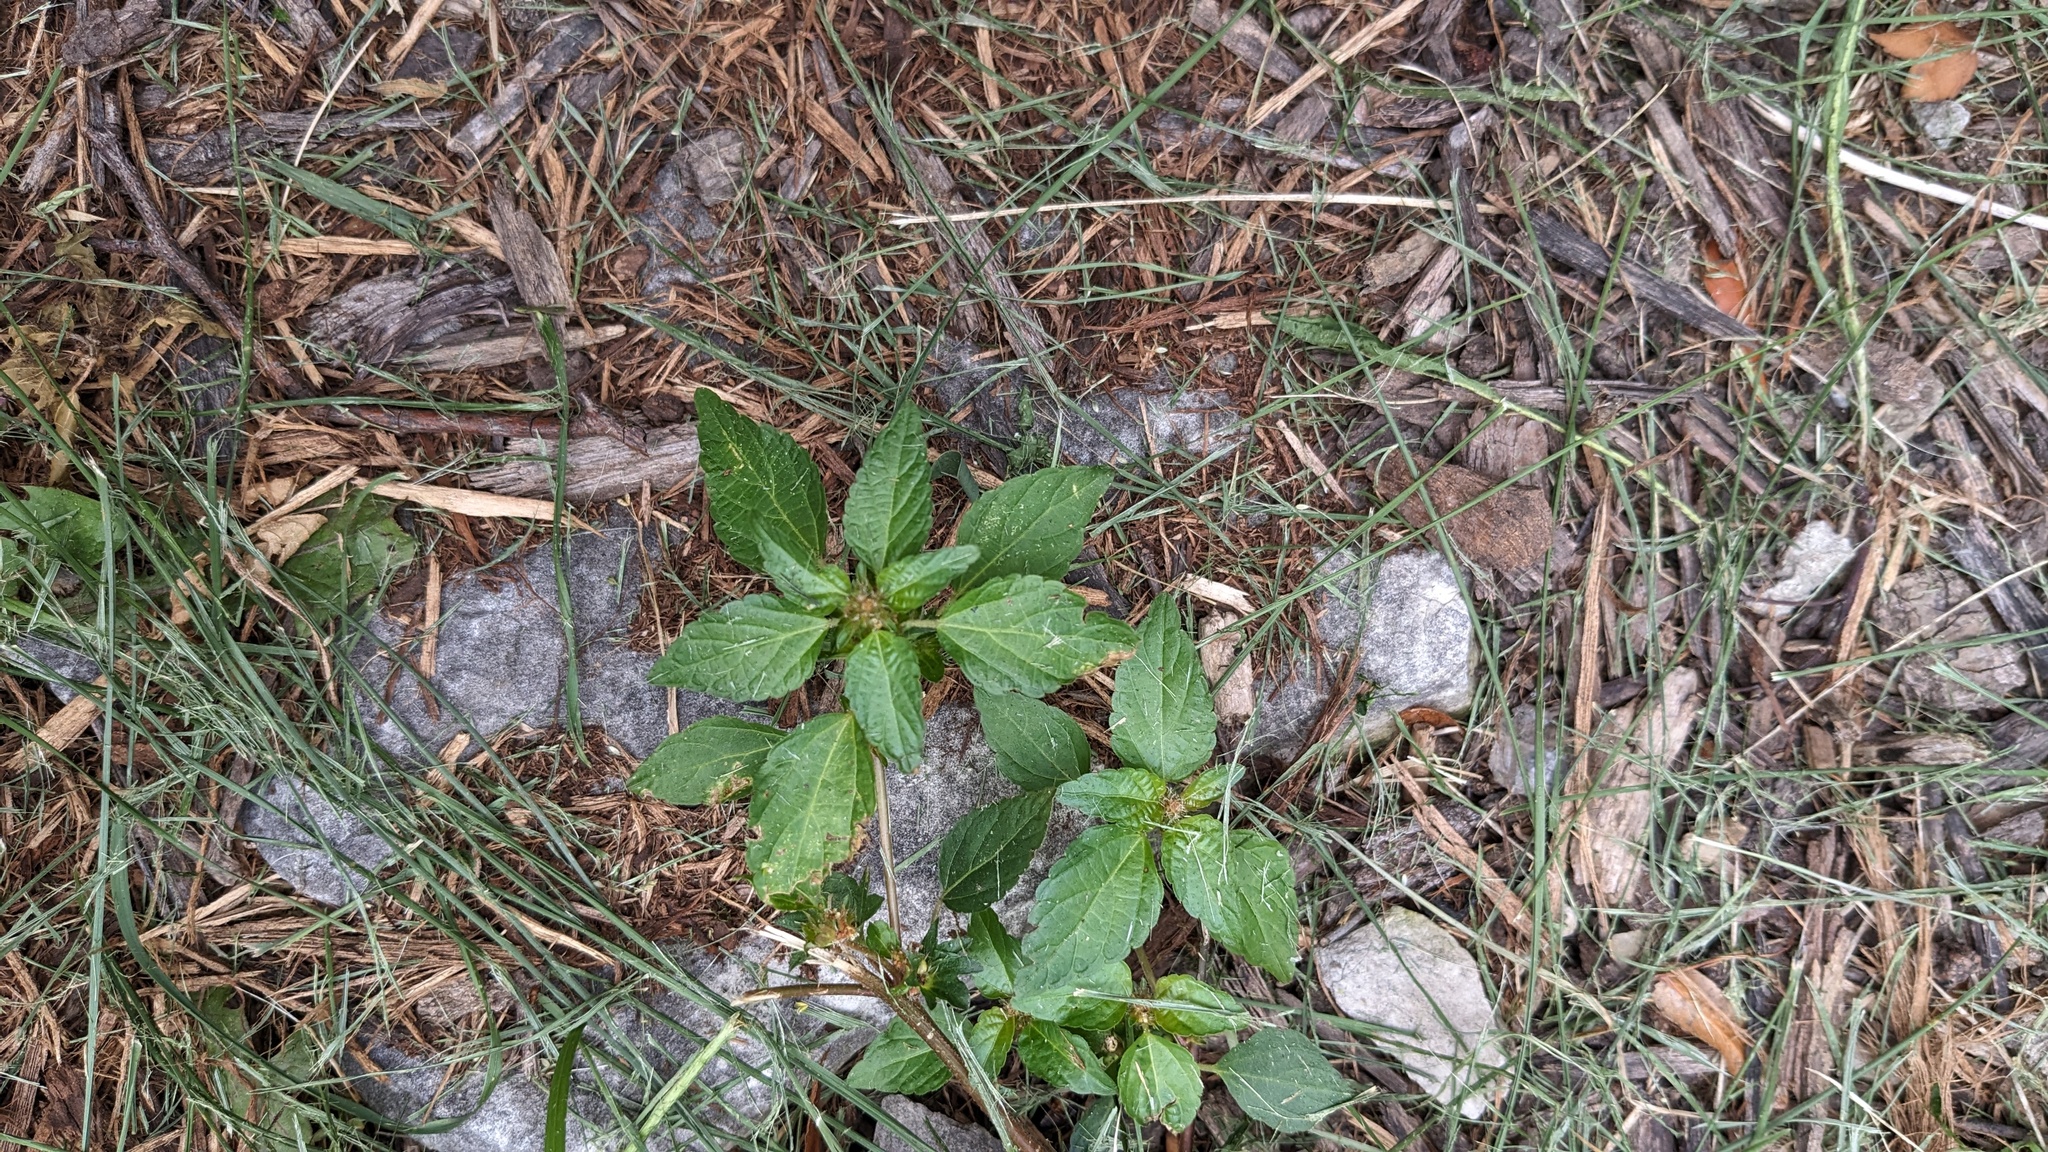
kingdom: Plantae
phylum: Tracheophyta
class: Magnoliopsida
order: Malpighiales
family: Euphorbiaceae
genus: Acalypha
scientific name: Acalypha rhomboidea
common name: Rhombic copperleaf
